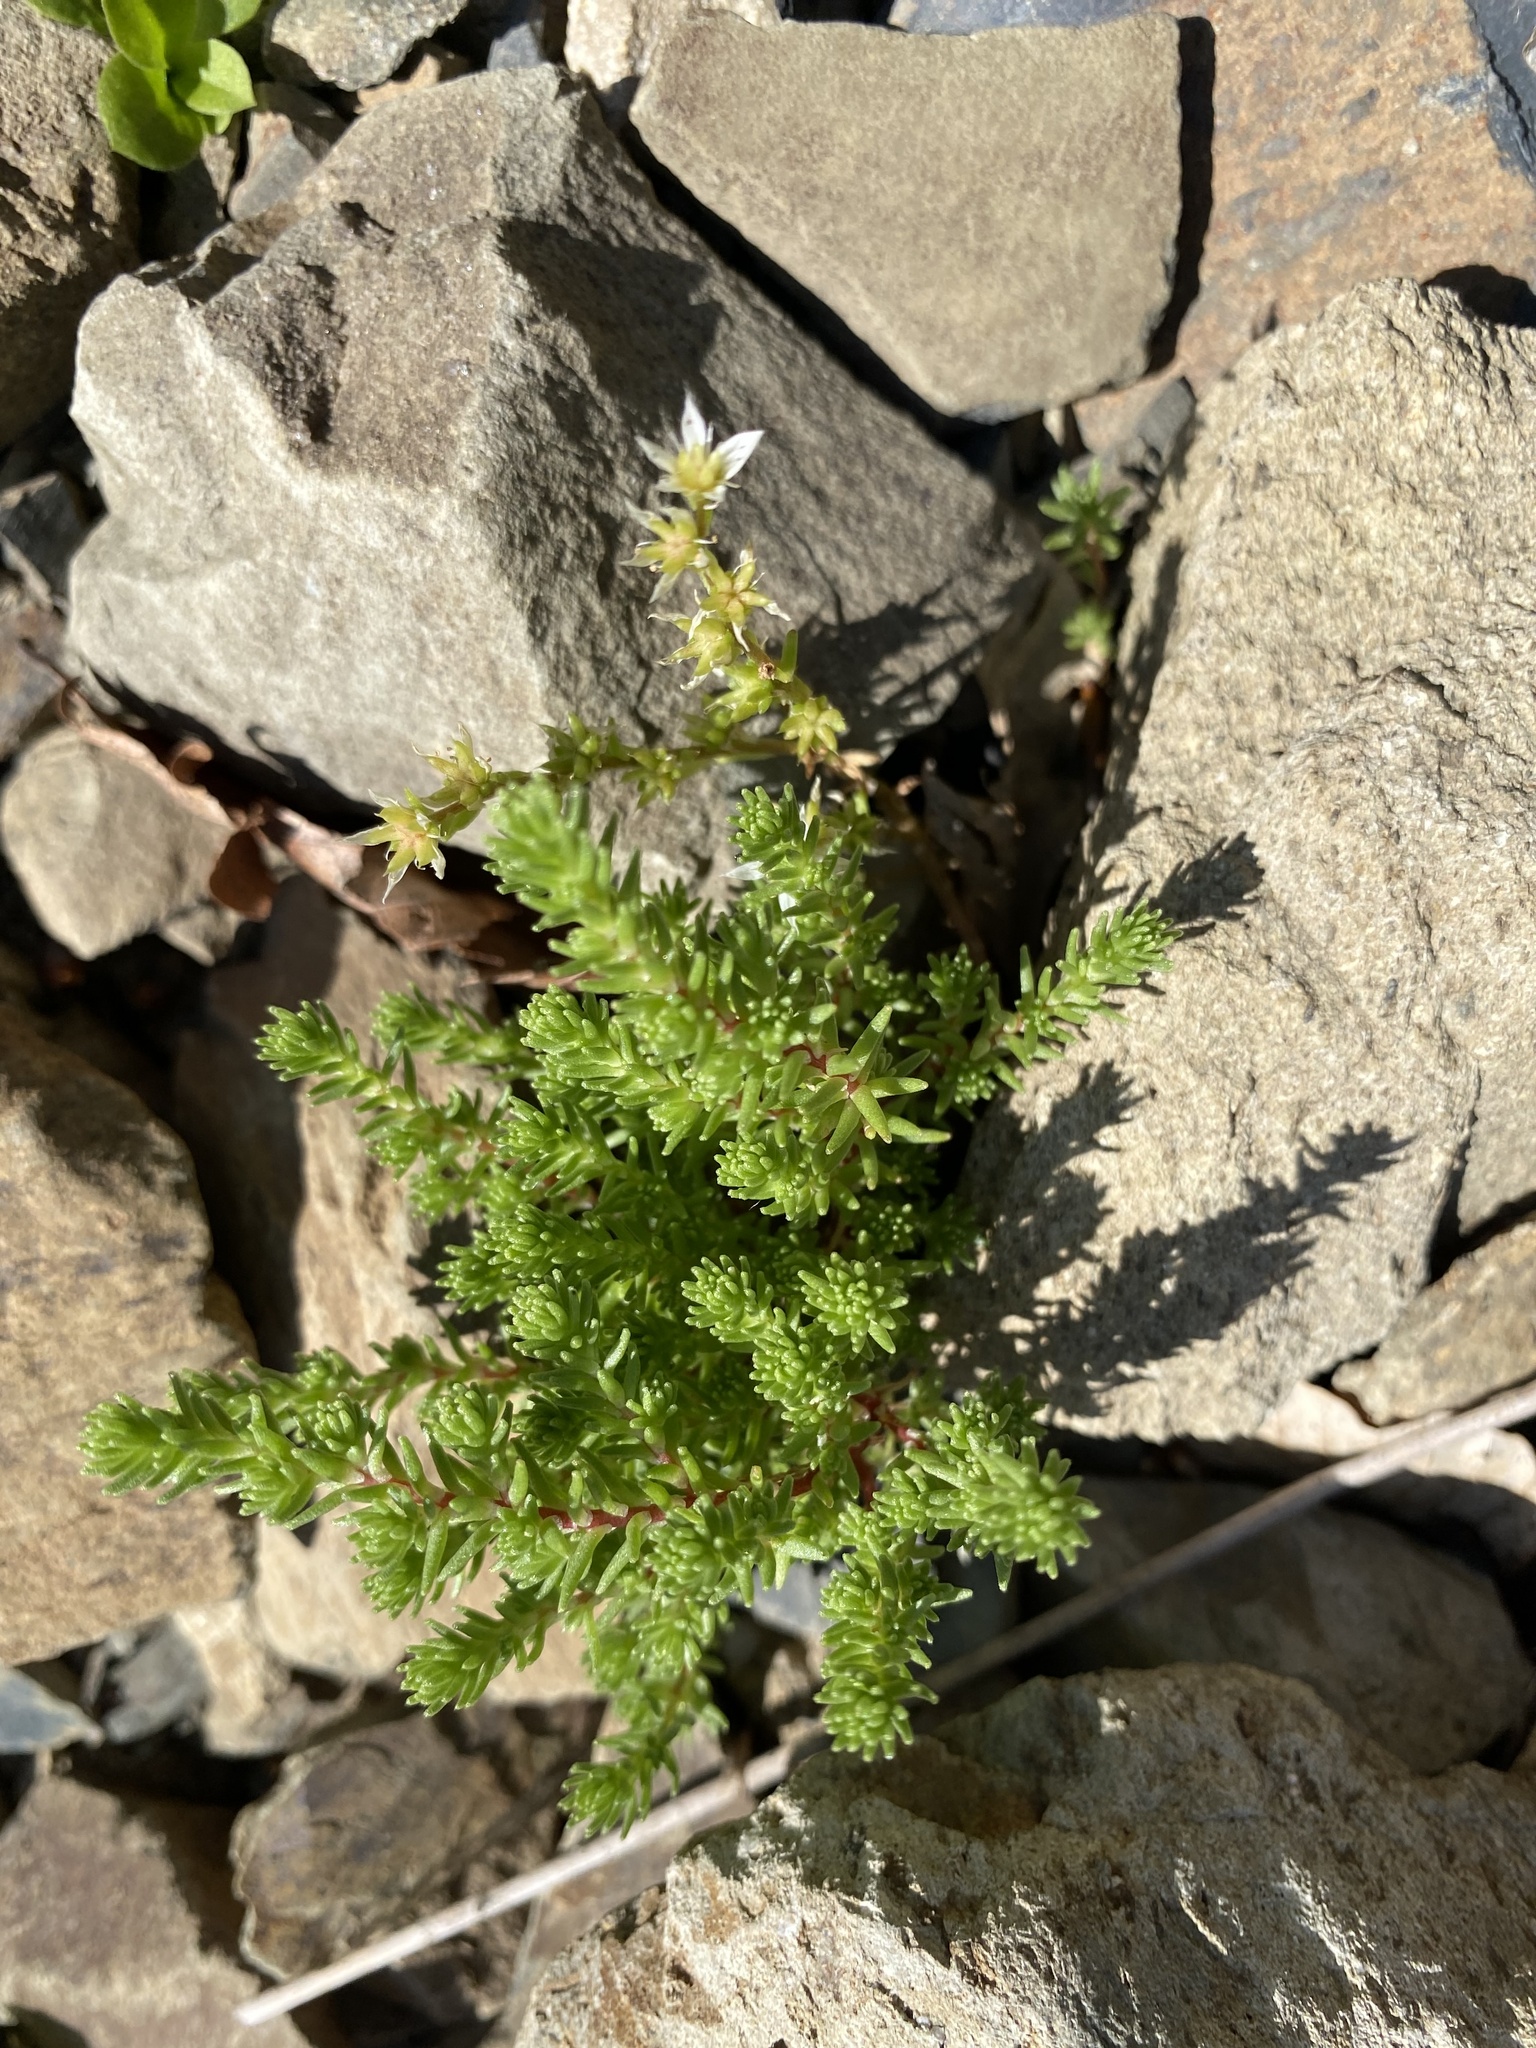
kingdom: Plantae
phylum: Tracheophyta
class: Magnoliopsida
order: Lamiales
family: Lamiaceae
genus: Galeopsis
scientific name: Galeopsis bifida
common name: Bifid hemp-nettle
